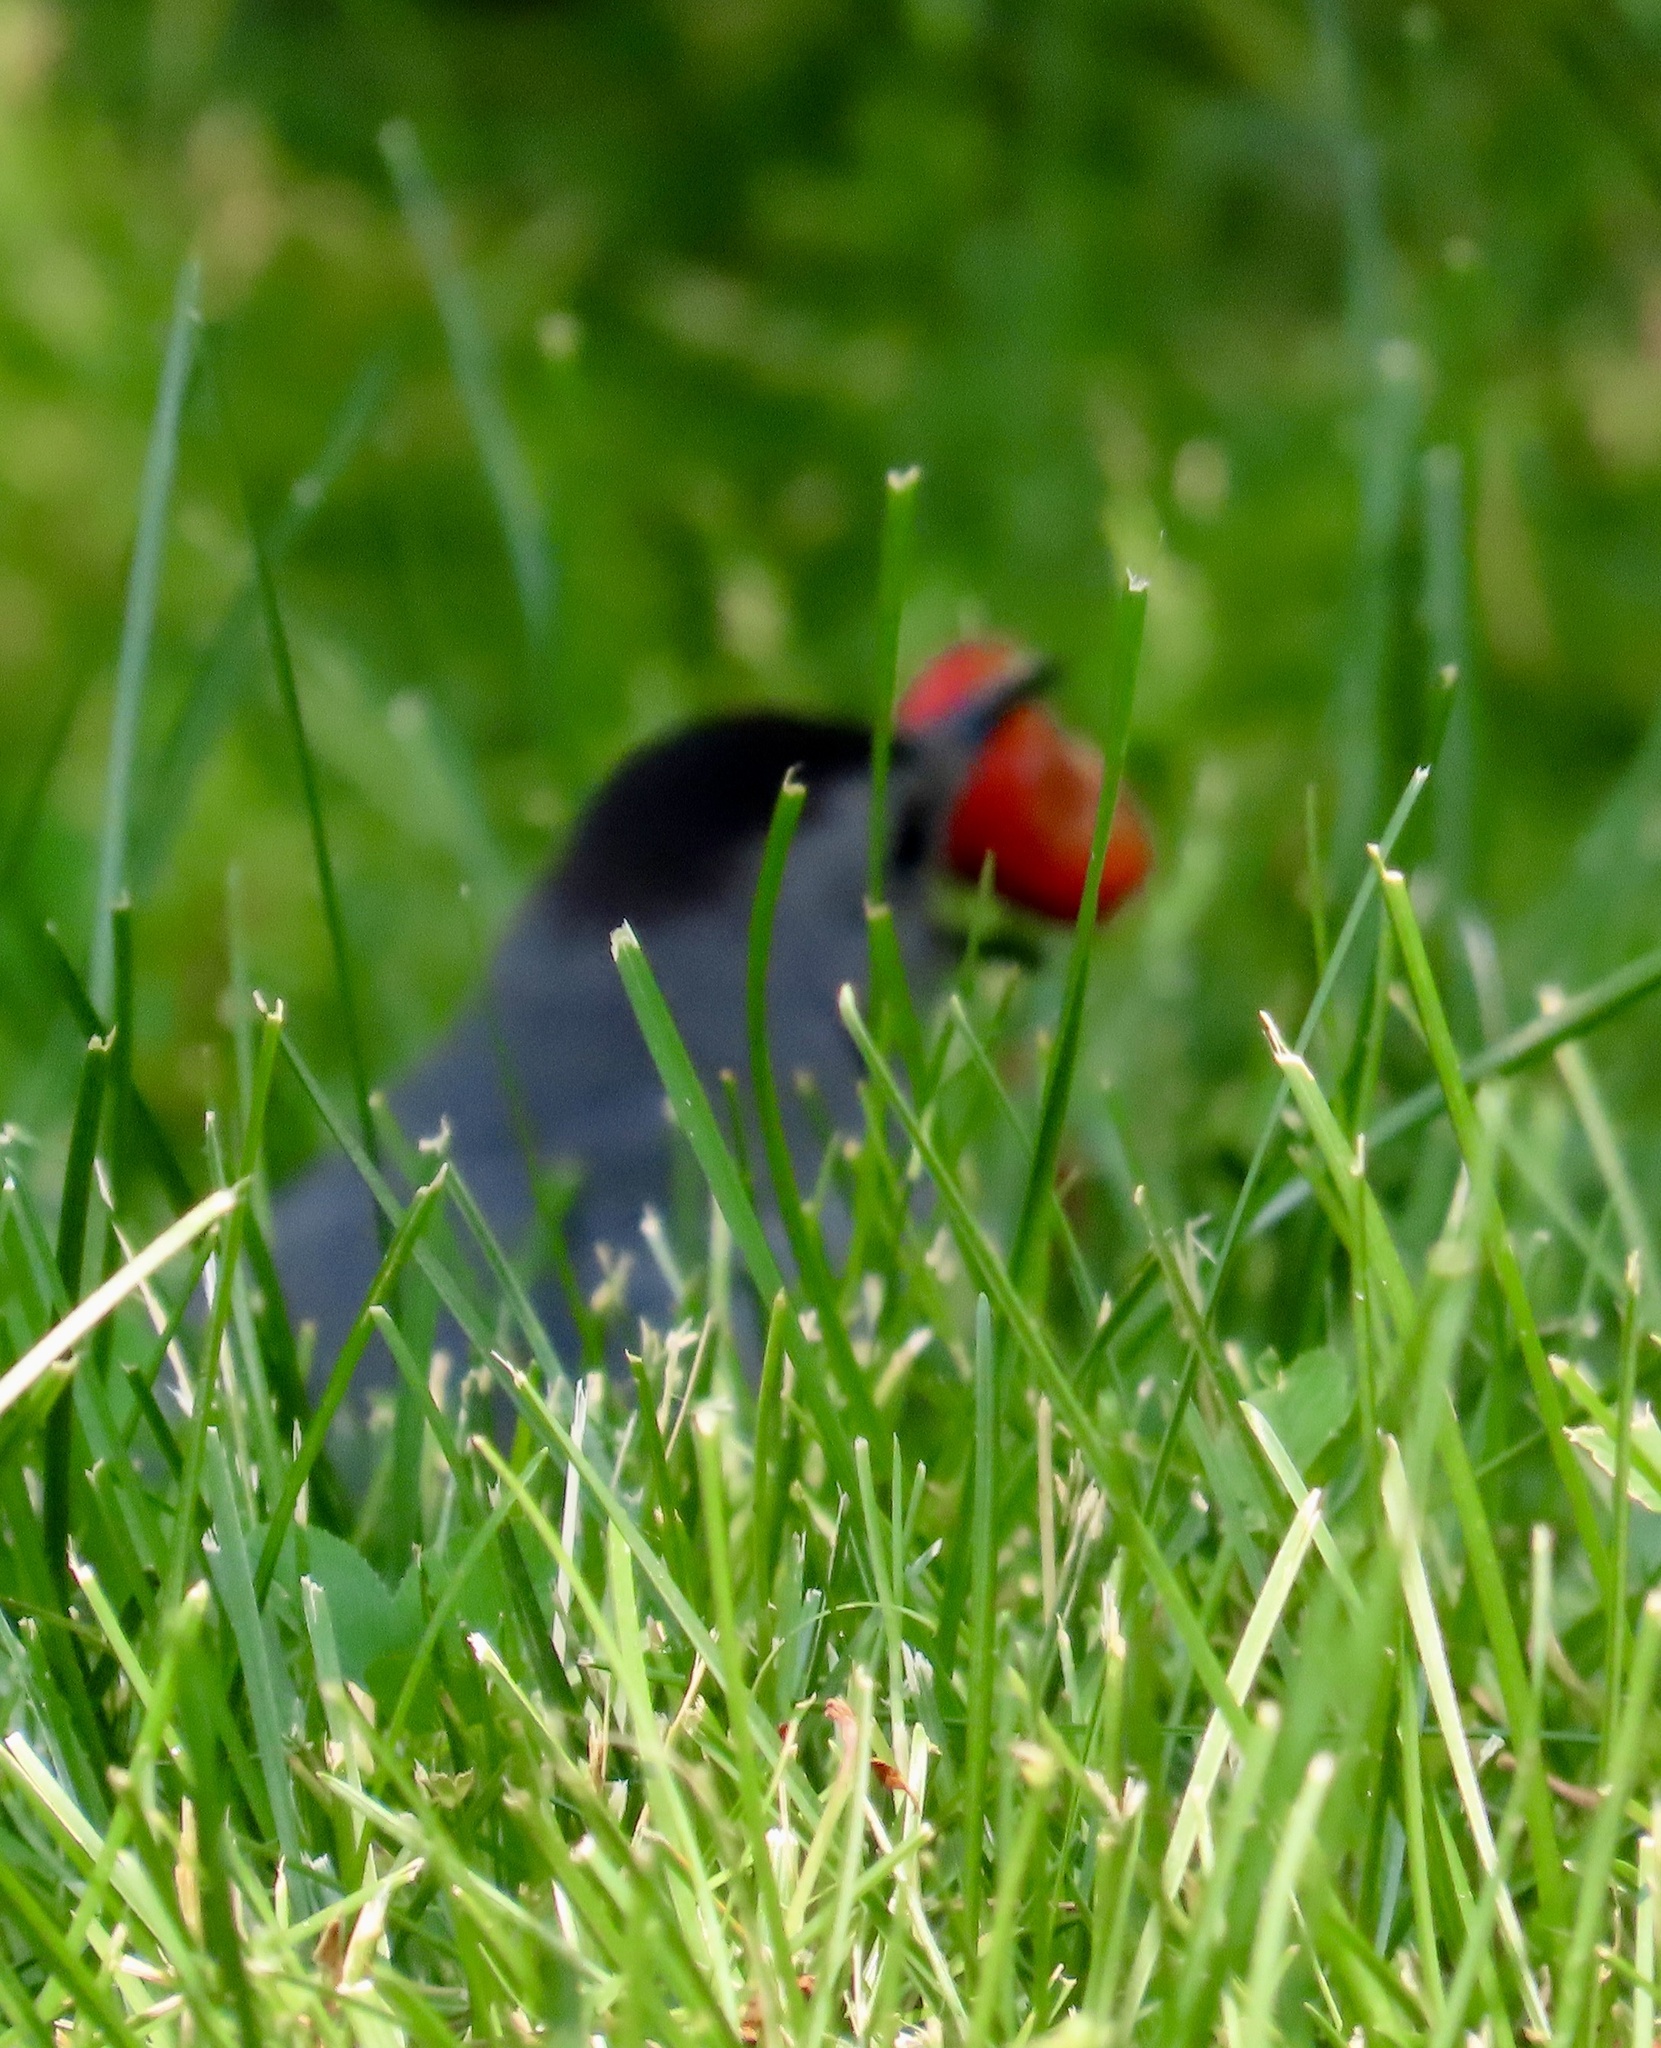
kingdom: Animalia
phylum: Chordata
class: Aves
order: Passeriformes
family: Mimidae
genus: Dumetella
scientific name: Dumetella carolinensis
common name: Gray catbird
